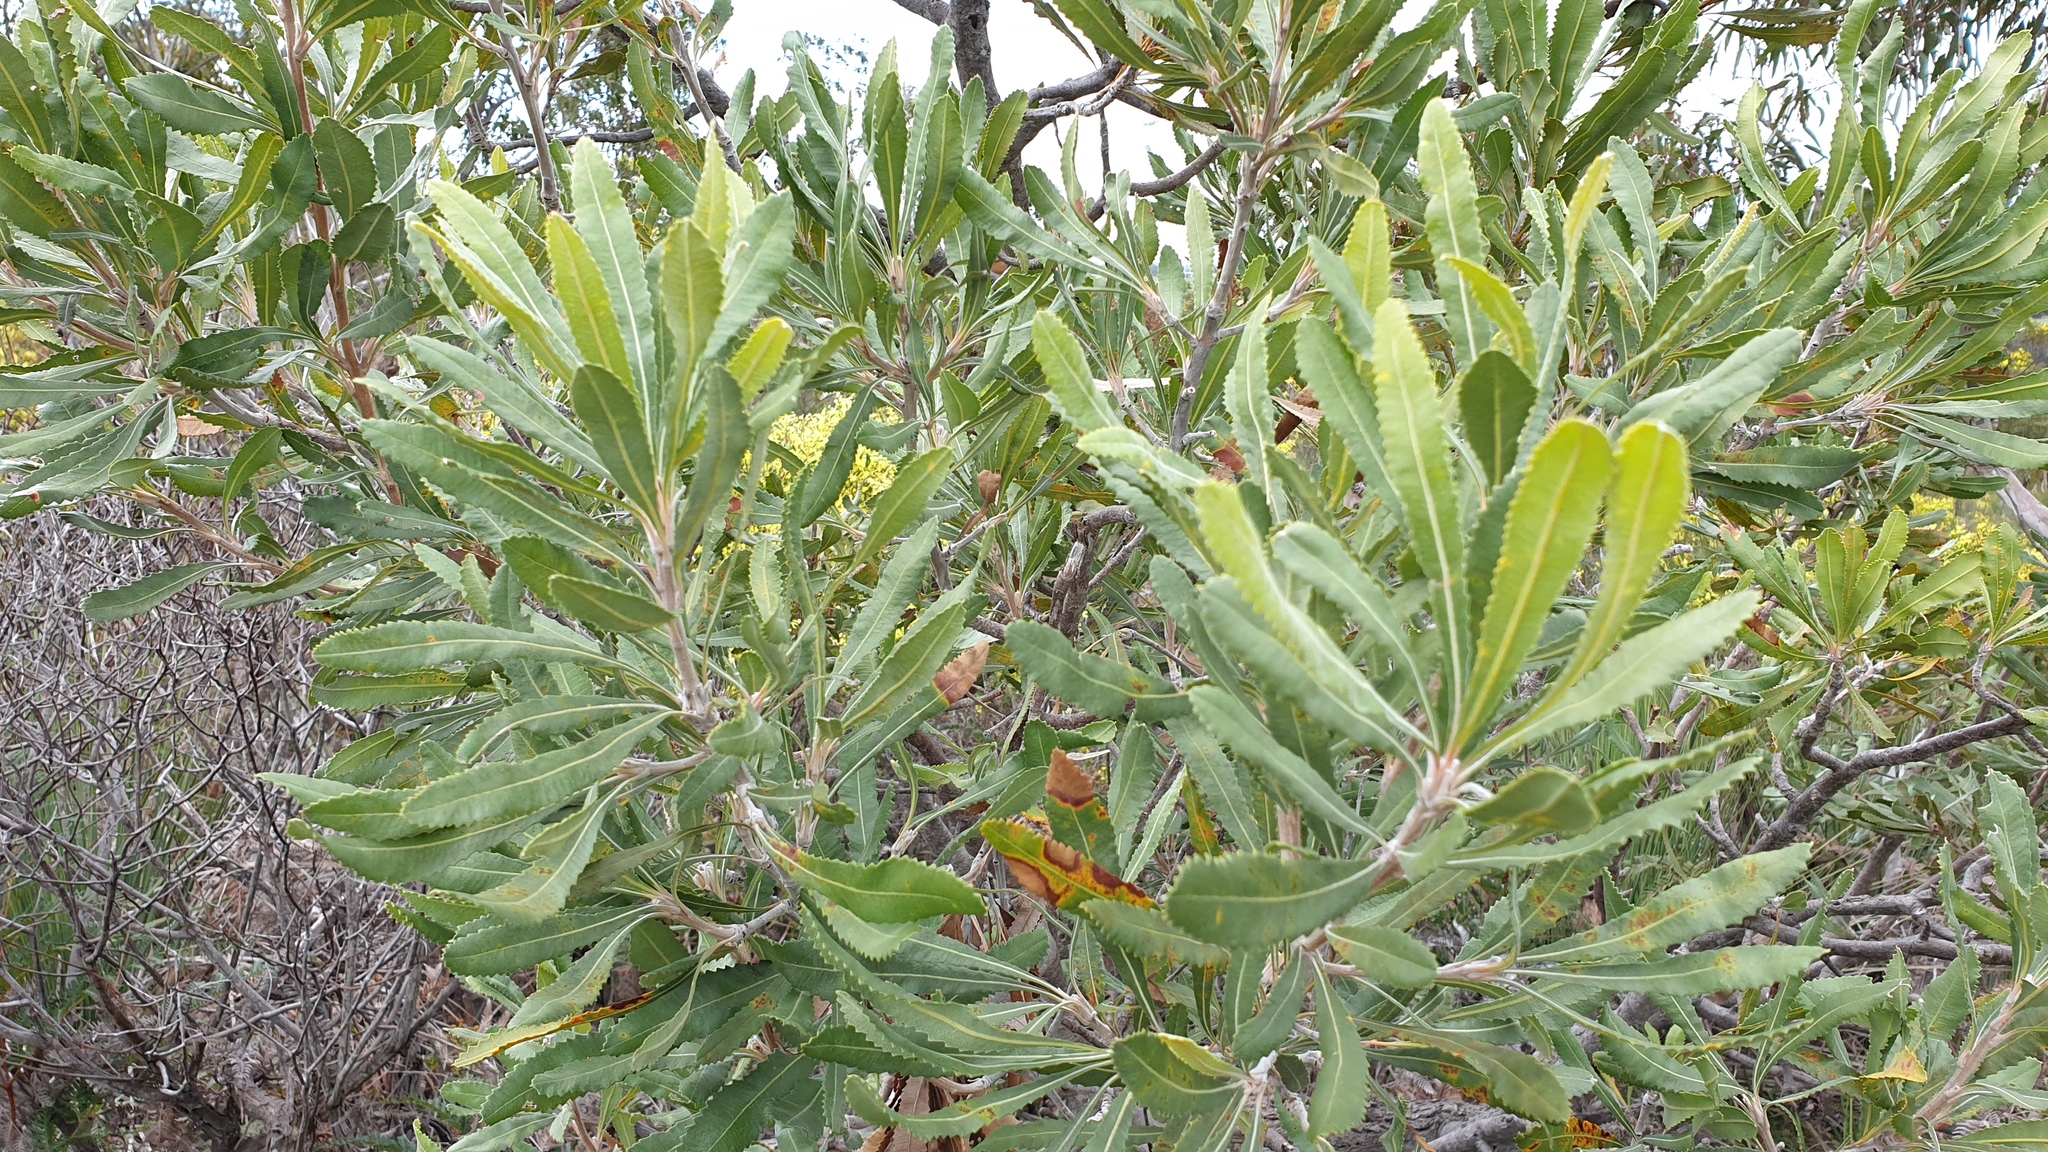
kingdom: Plantae
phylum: Tracheophyta
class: Magnoliopsida
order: Proteales
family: Proteaceae
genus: Banksia
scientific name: Banksia ornata
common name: Desert banksia
